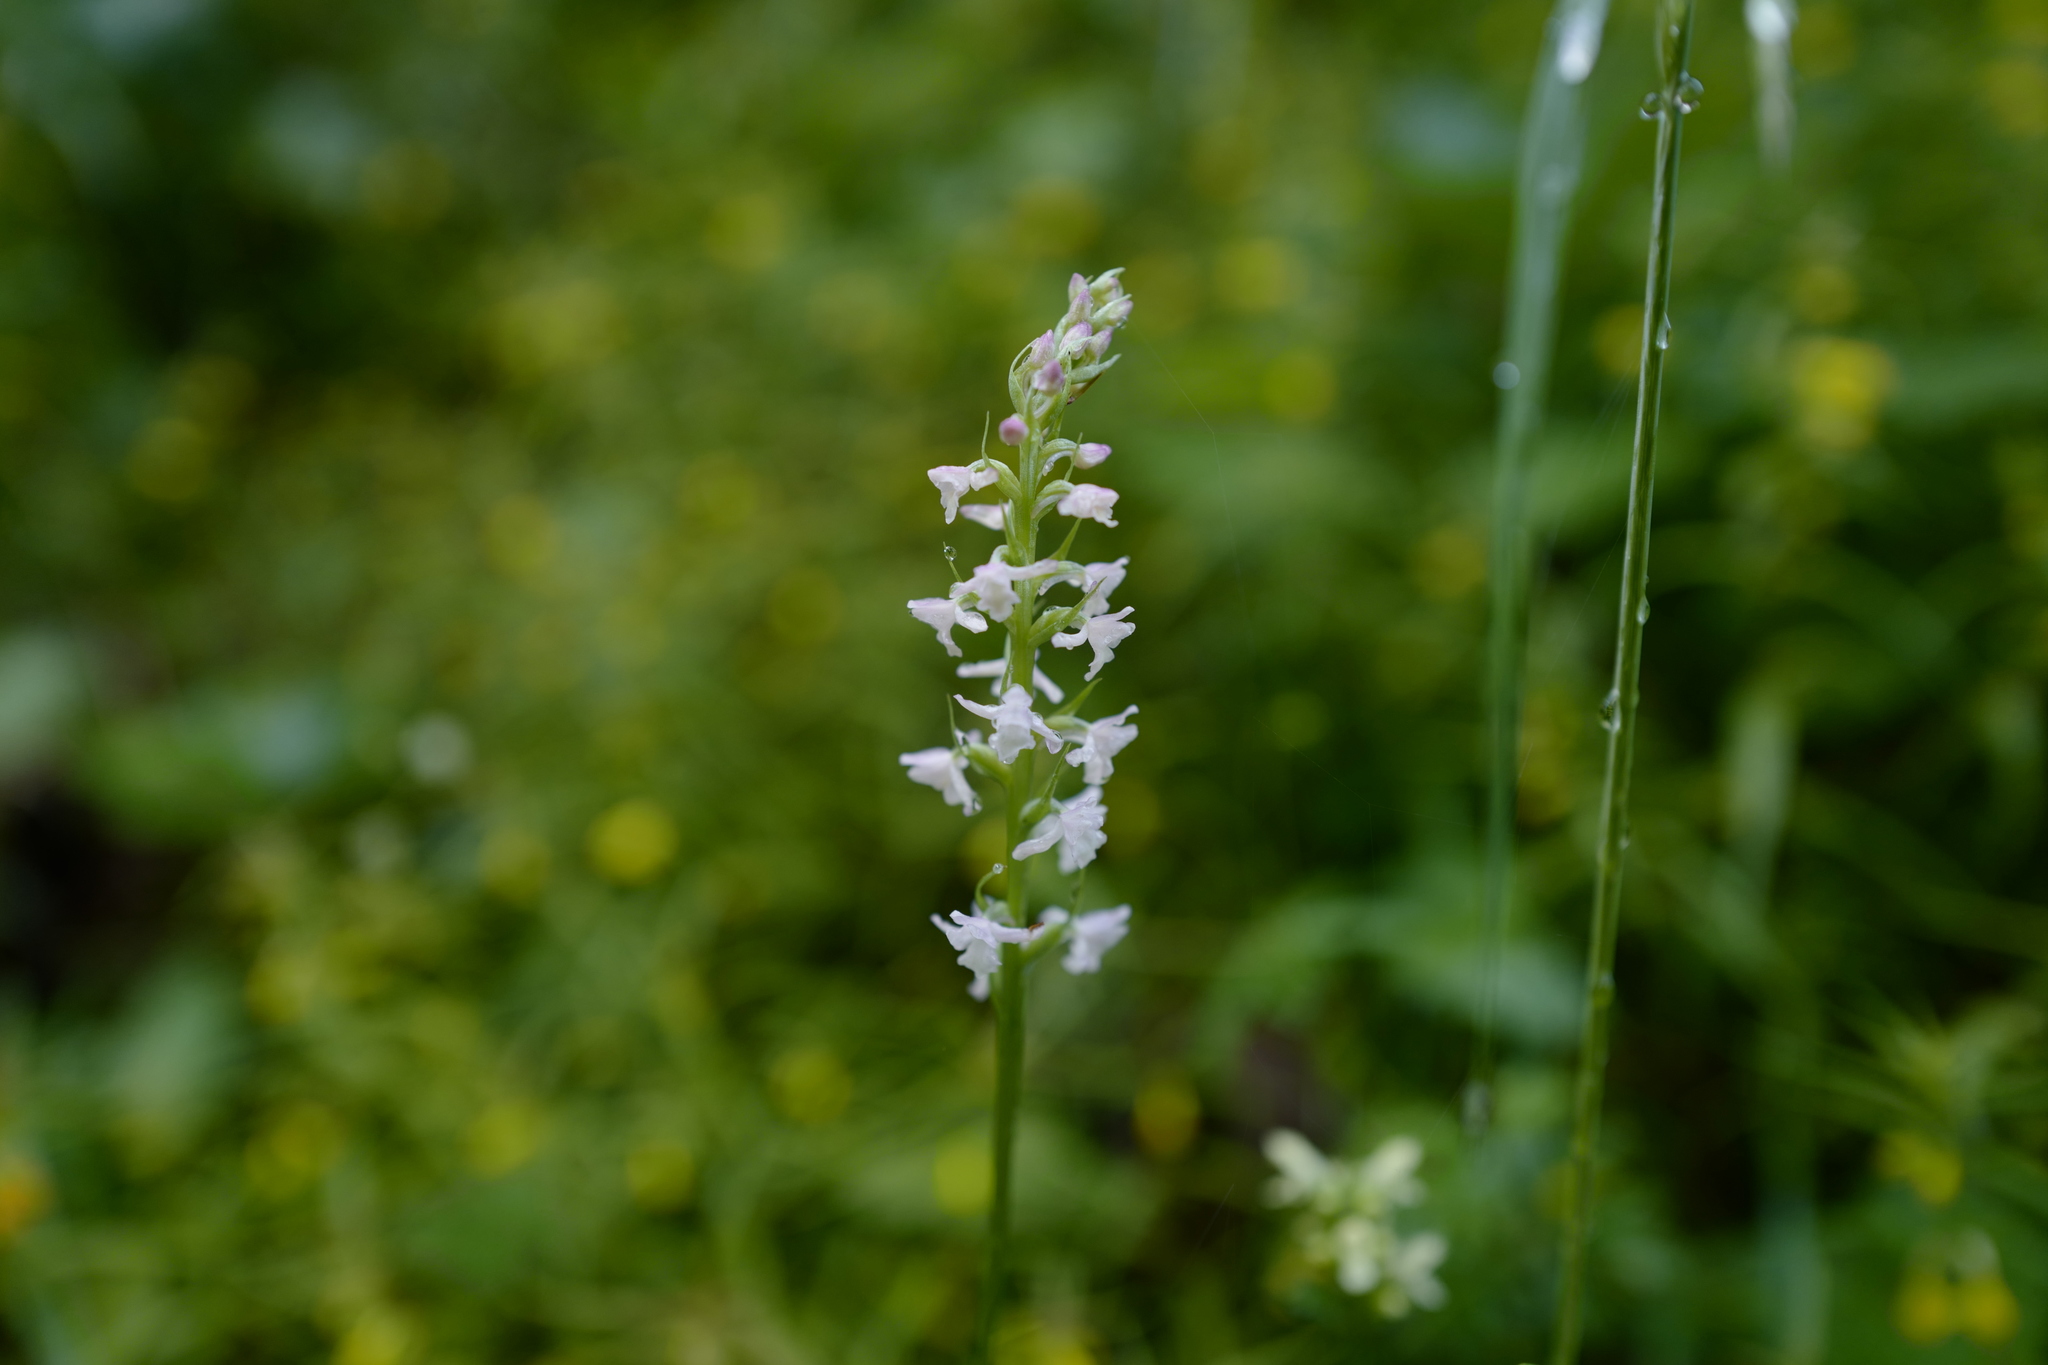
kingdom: Plantae
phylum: Tracheophyta
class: Liliopsida
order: Asparagales
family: Orchidaceae
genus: Gymnadenia
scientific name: Gymnadenia odoratissima
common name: Scented gymnadenia
